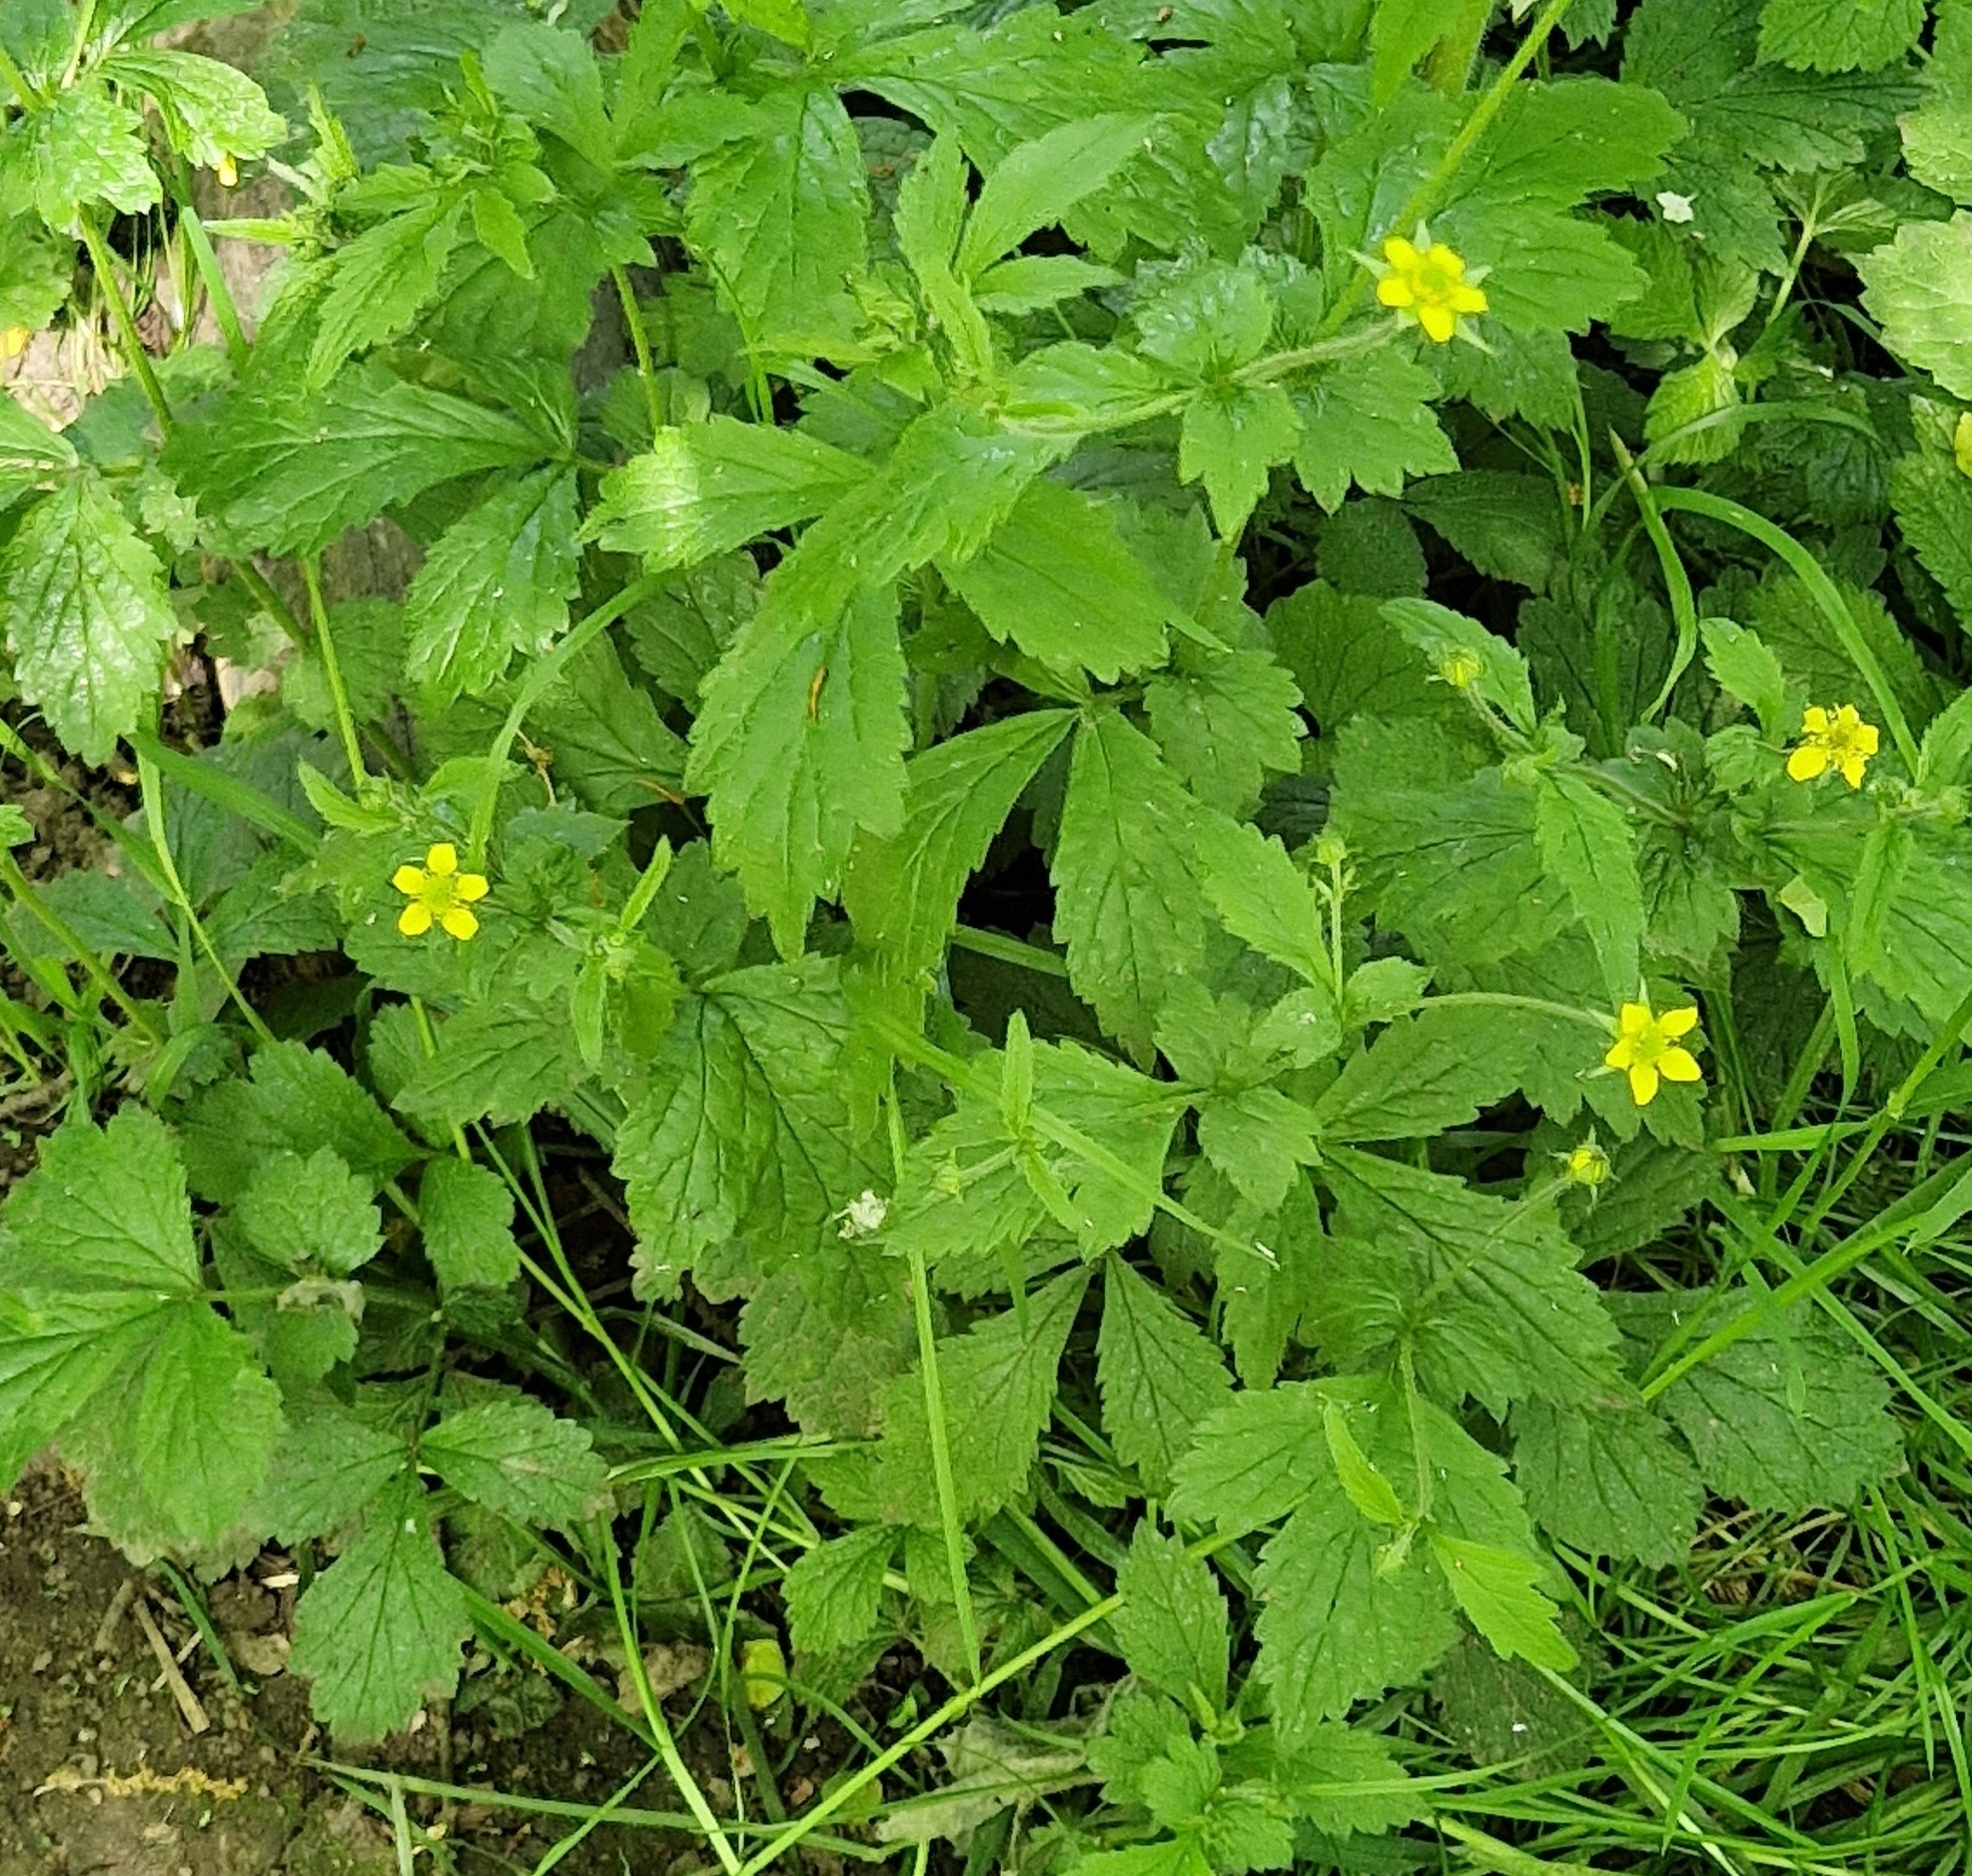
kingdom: Plantae
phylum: Tracheophyta
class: Magnoliopsida
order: Rosales
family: Rosaceae
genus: Geum
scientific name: Geum urbanum
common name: Wood avens
